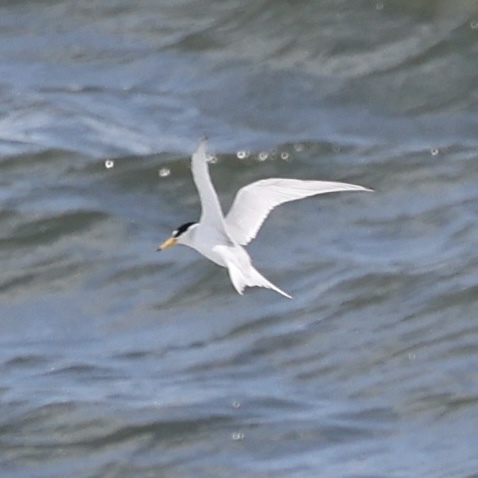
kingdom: Animalia
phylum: Chordata
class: Aves
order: Charadriiformes
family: Laridae
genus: Sternula
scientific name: Sternula antillarum
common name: Least tern
